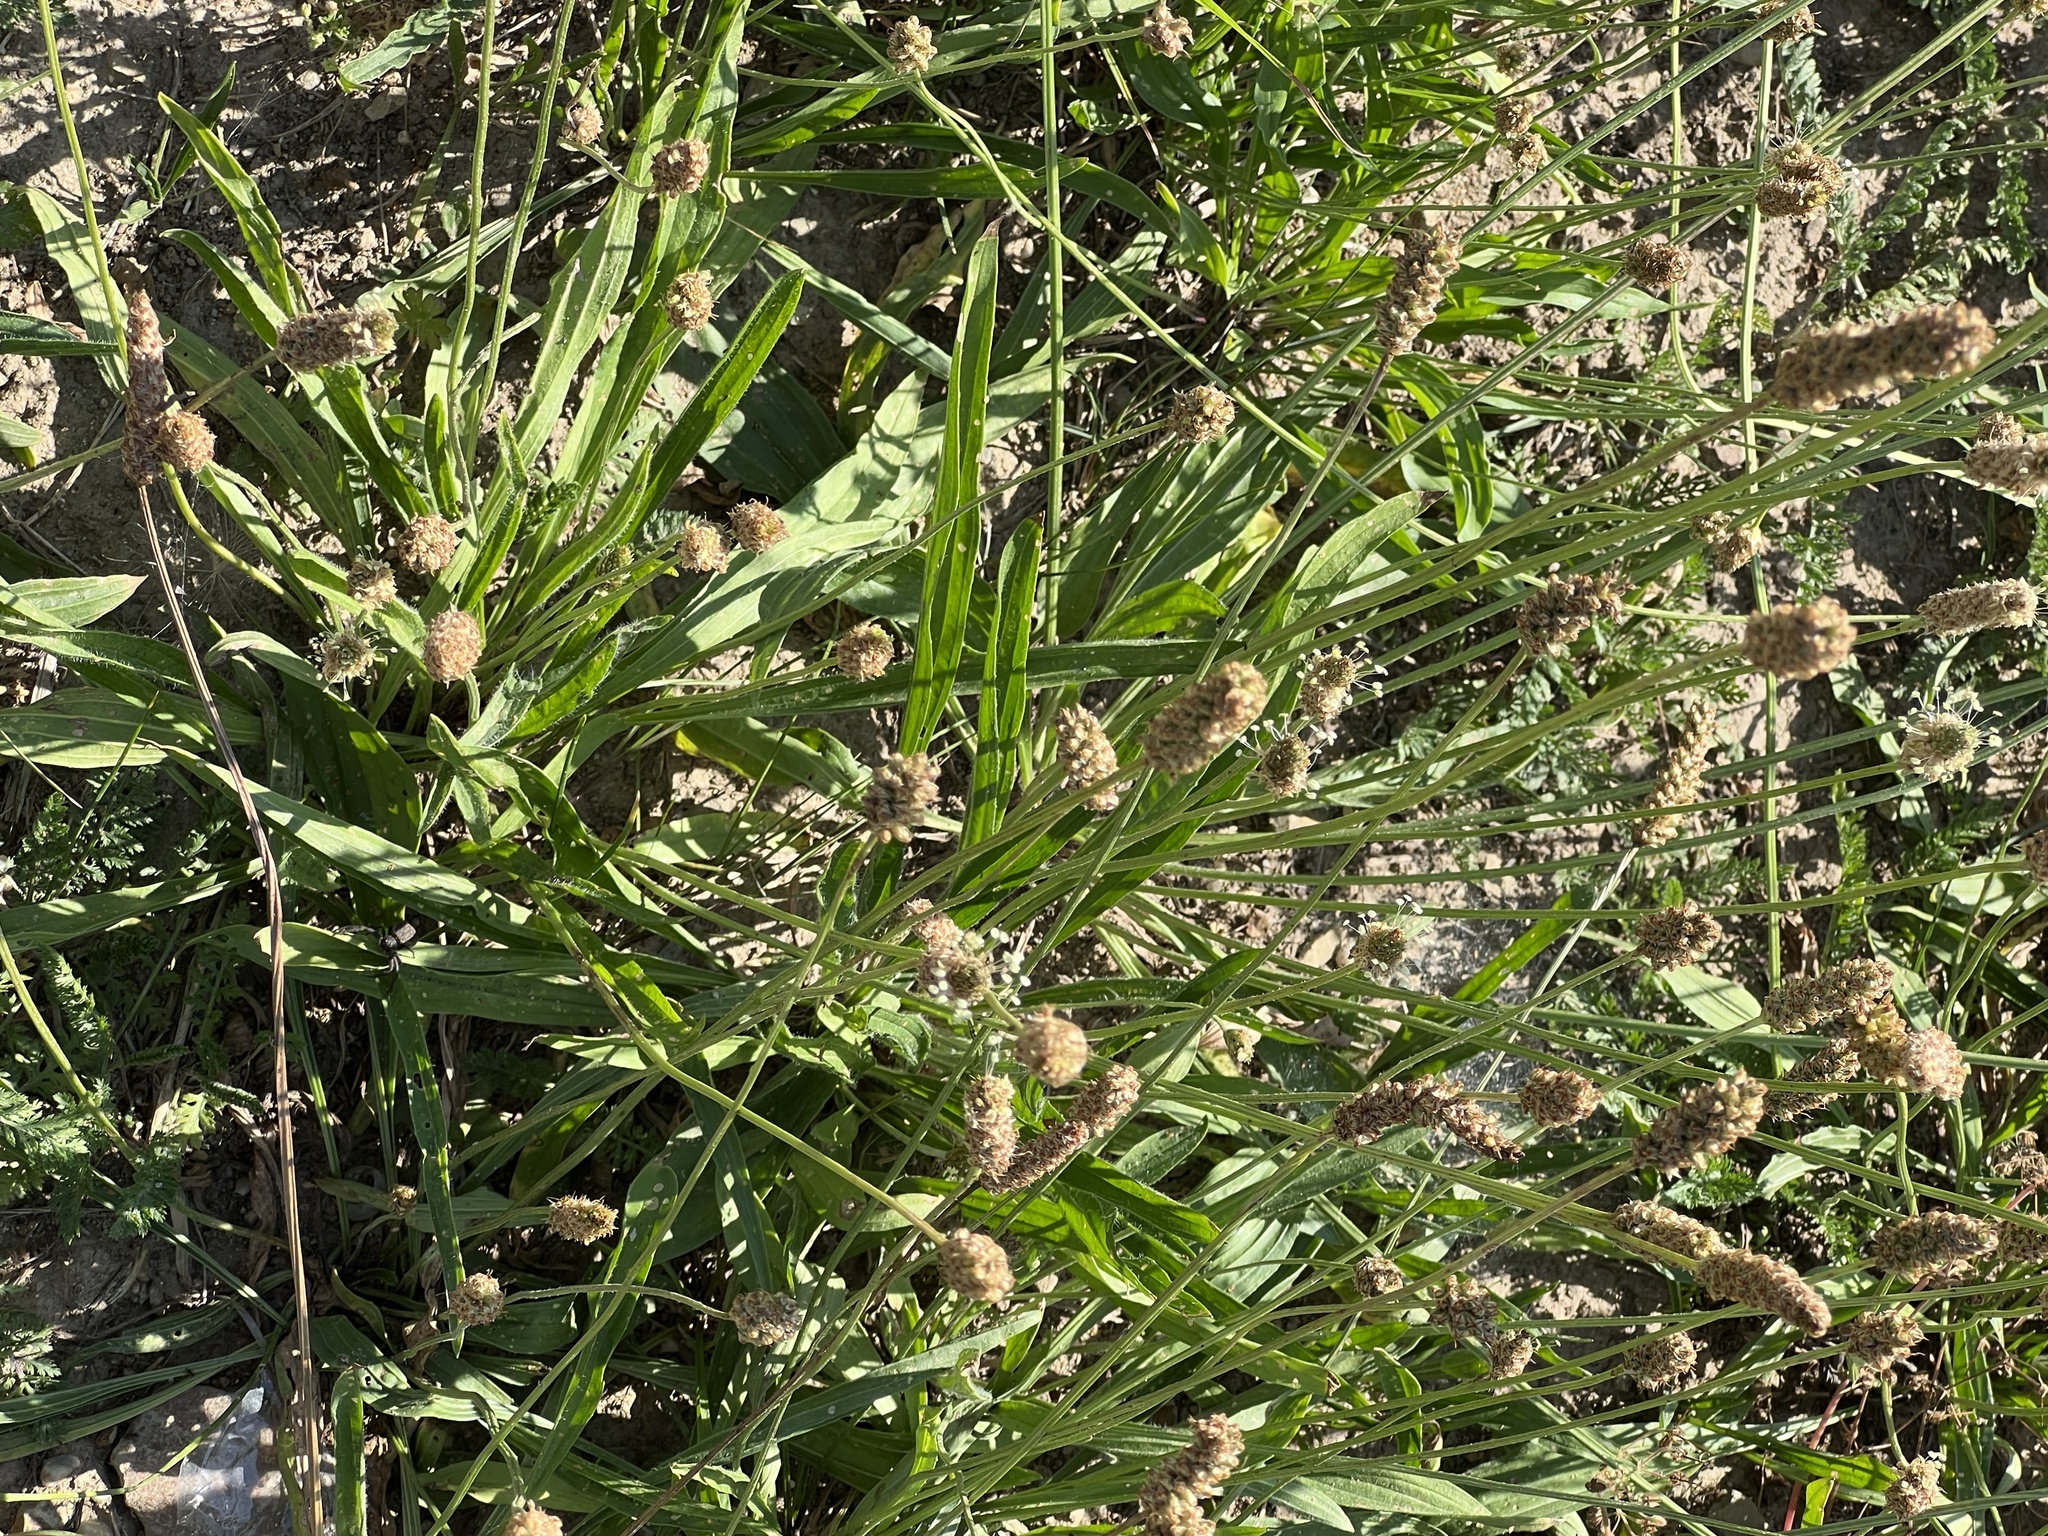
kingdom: Plantae
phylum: Tracheophyta
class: Magnoliopsida
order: Lamiales
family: Plantaginaceae
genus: Plantago
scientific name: Plantago lanceolata
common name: Ribwort plantain
